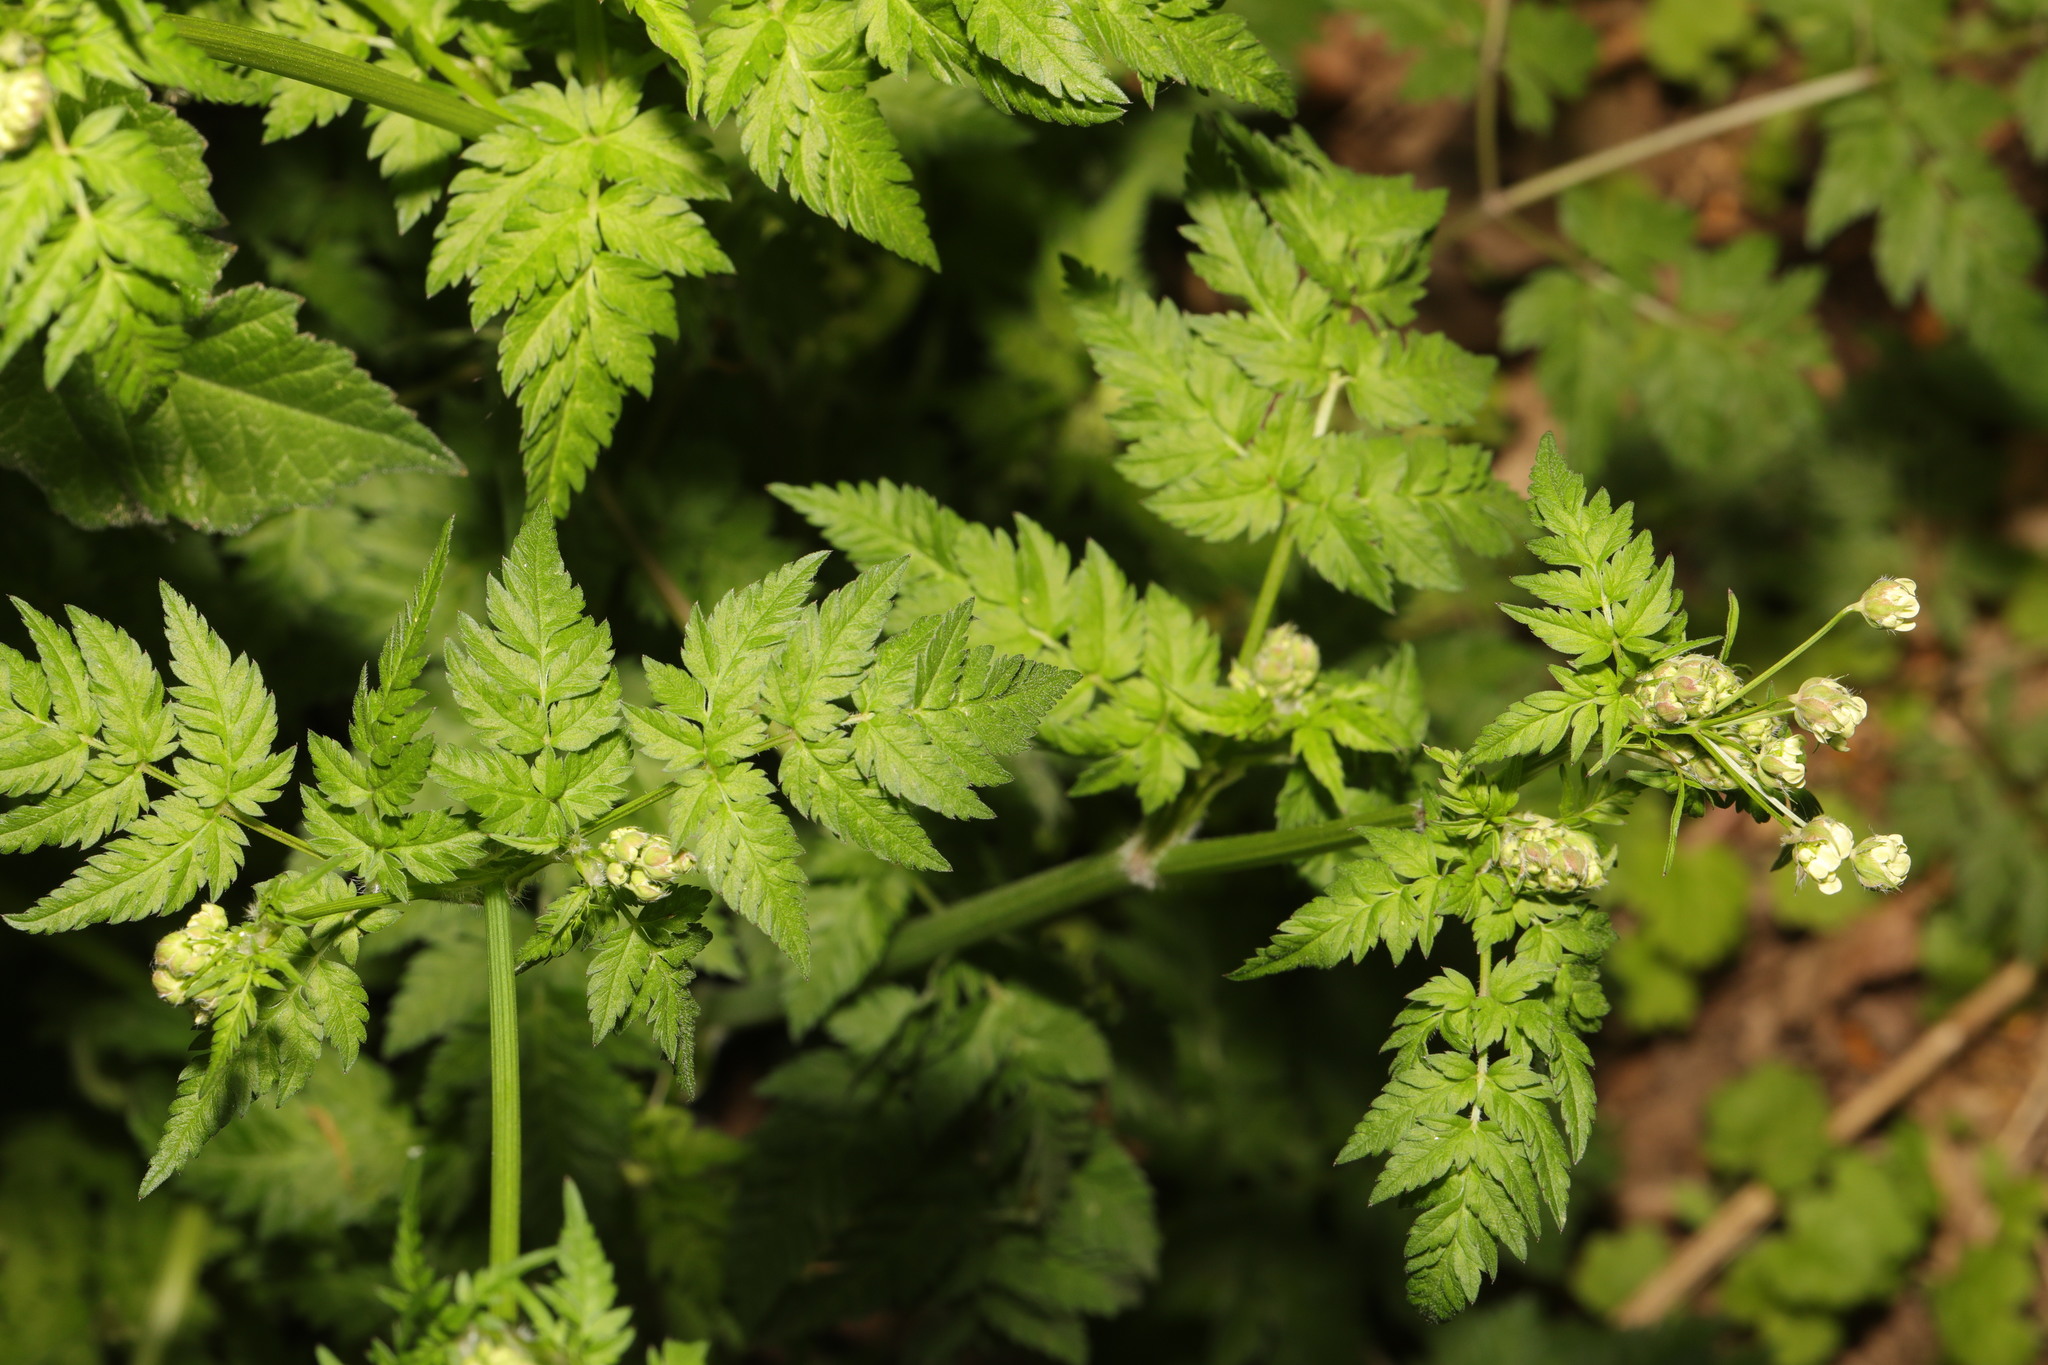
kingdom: Plantae
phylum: Tracheophyta
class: Magnoliopsida
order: Apiales
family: Apiaceae
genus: Anthriscus
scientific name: Anthriscus sylvestris
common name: Cow parsley
